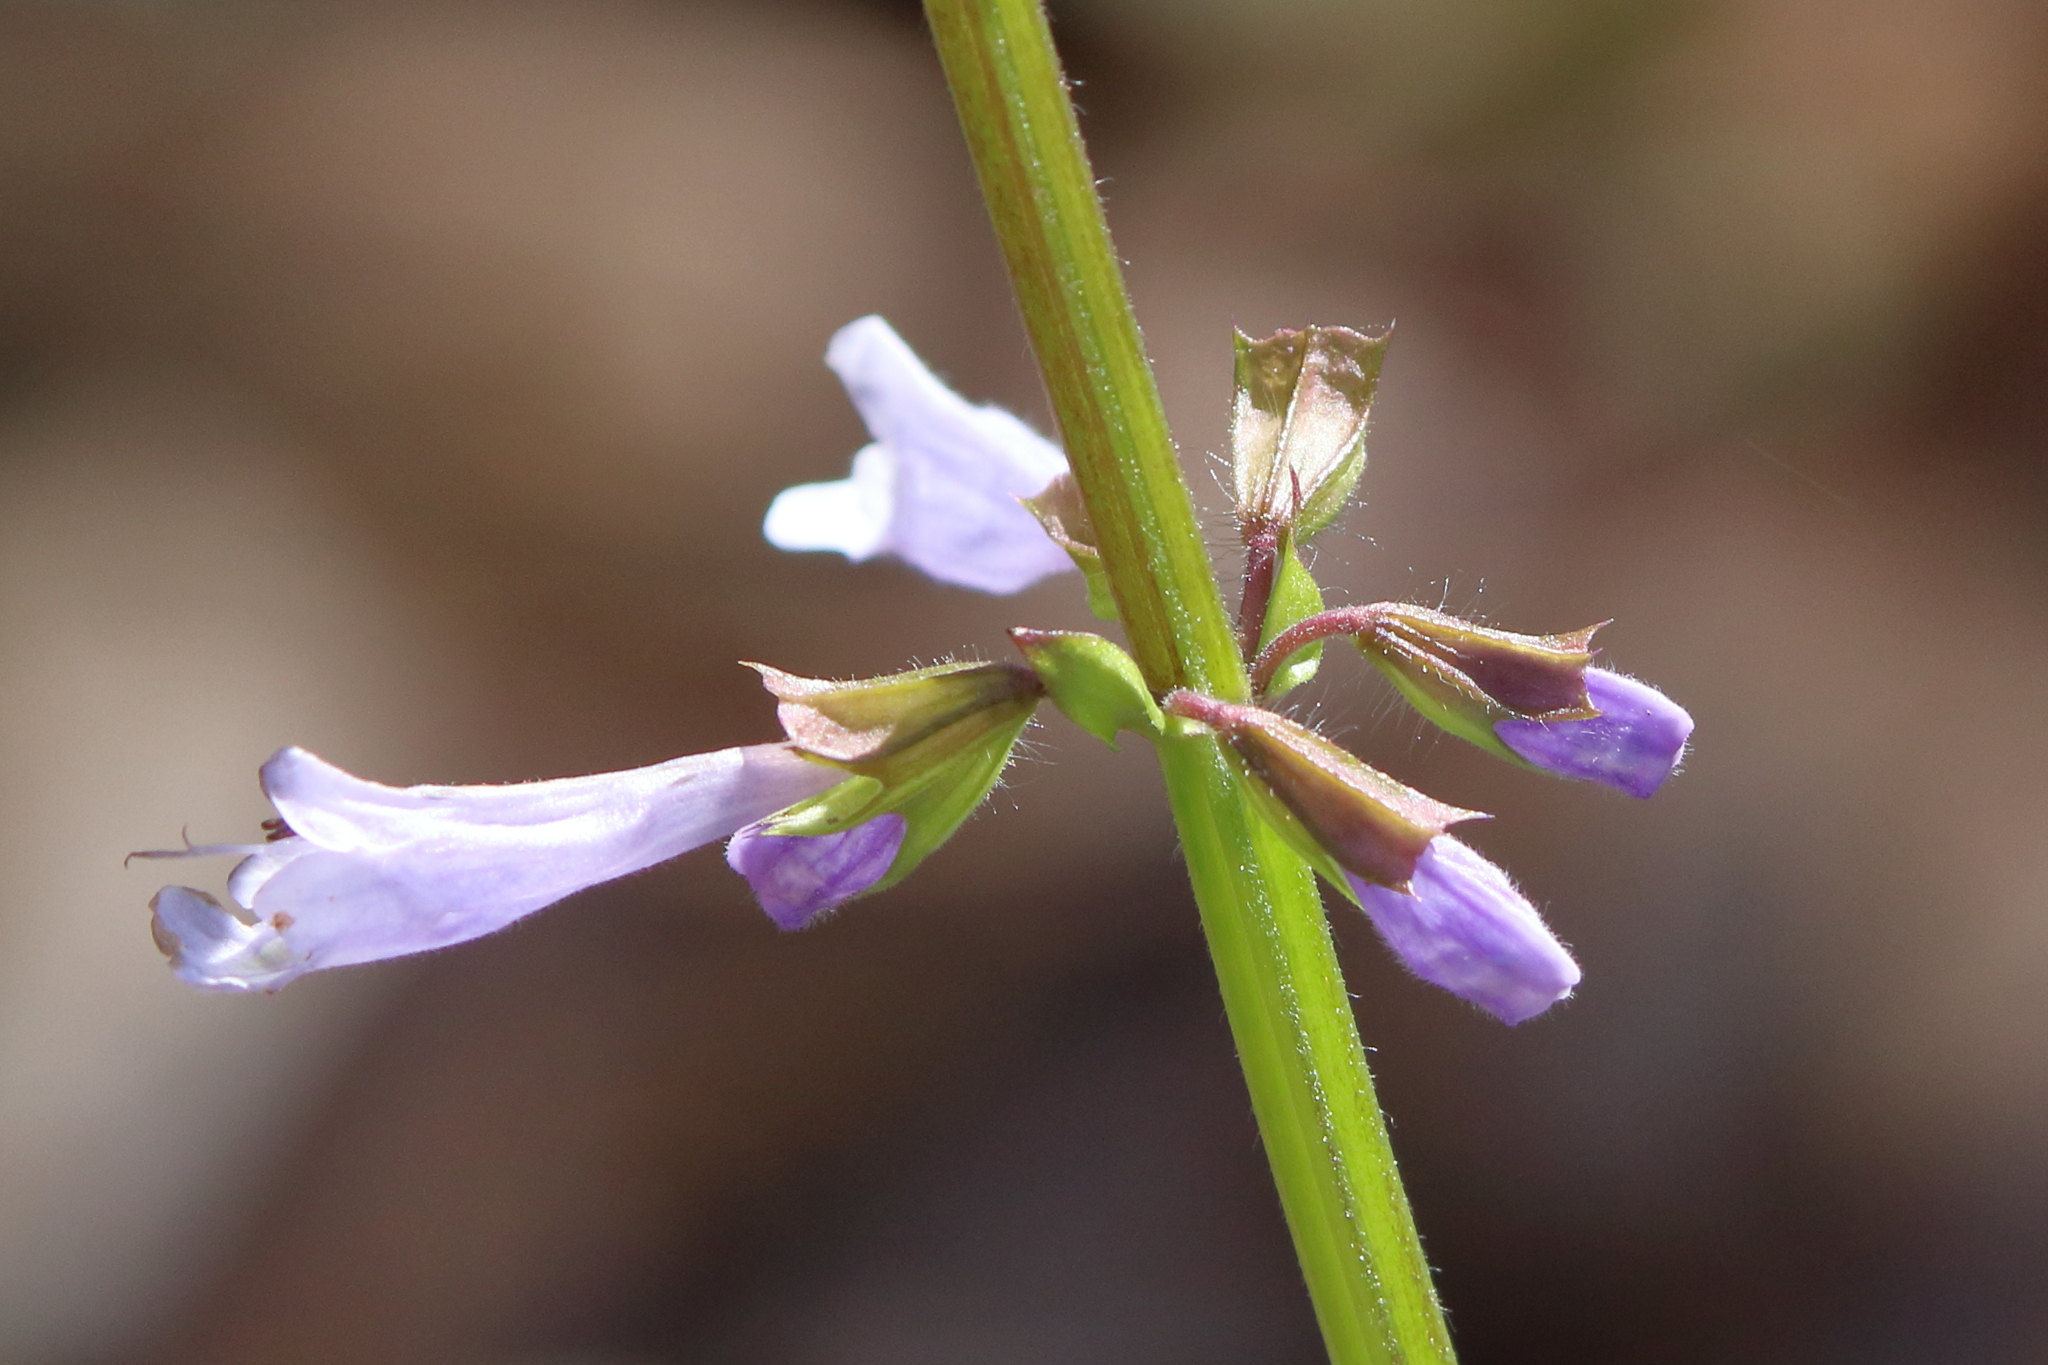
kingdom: Plantae
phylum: Tracheophyta
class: Magnoliopsida
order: Lamiales
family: Lamiaceae
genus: Salvia
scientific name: Salvia lyrata
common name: Cancerweed
